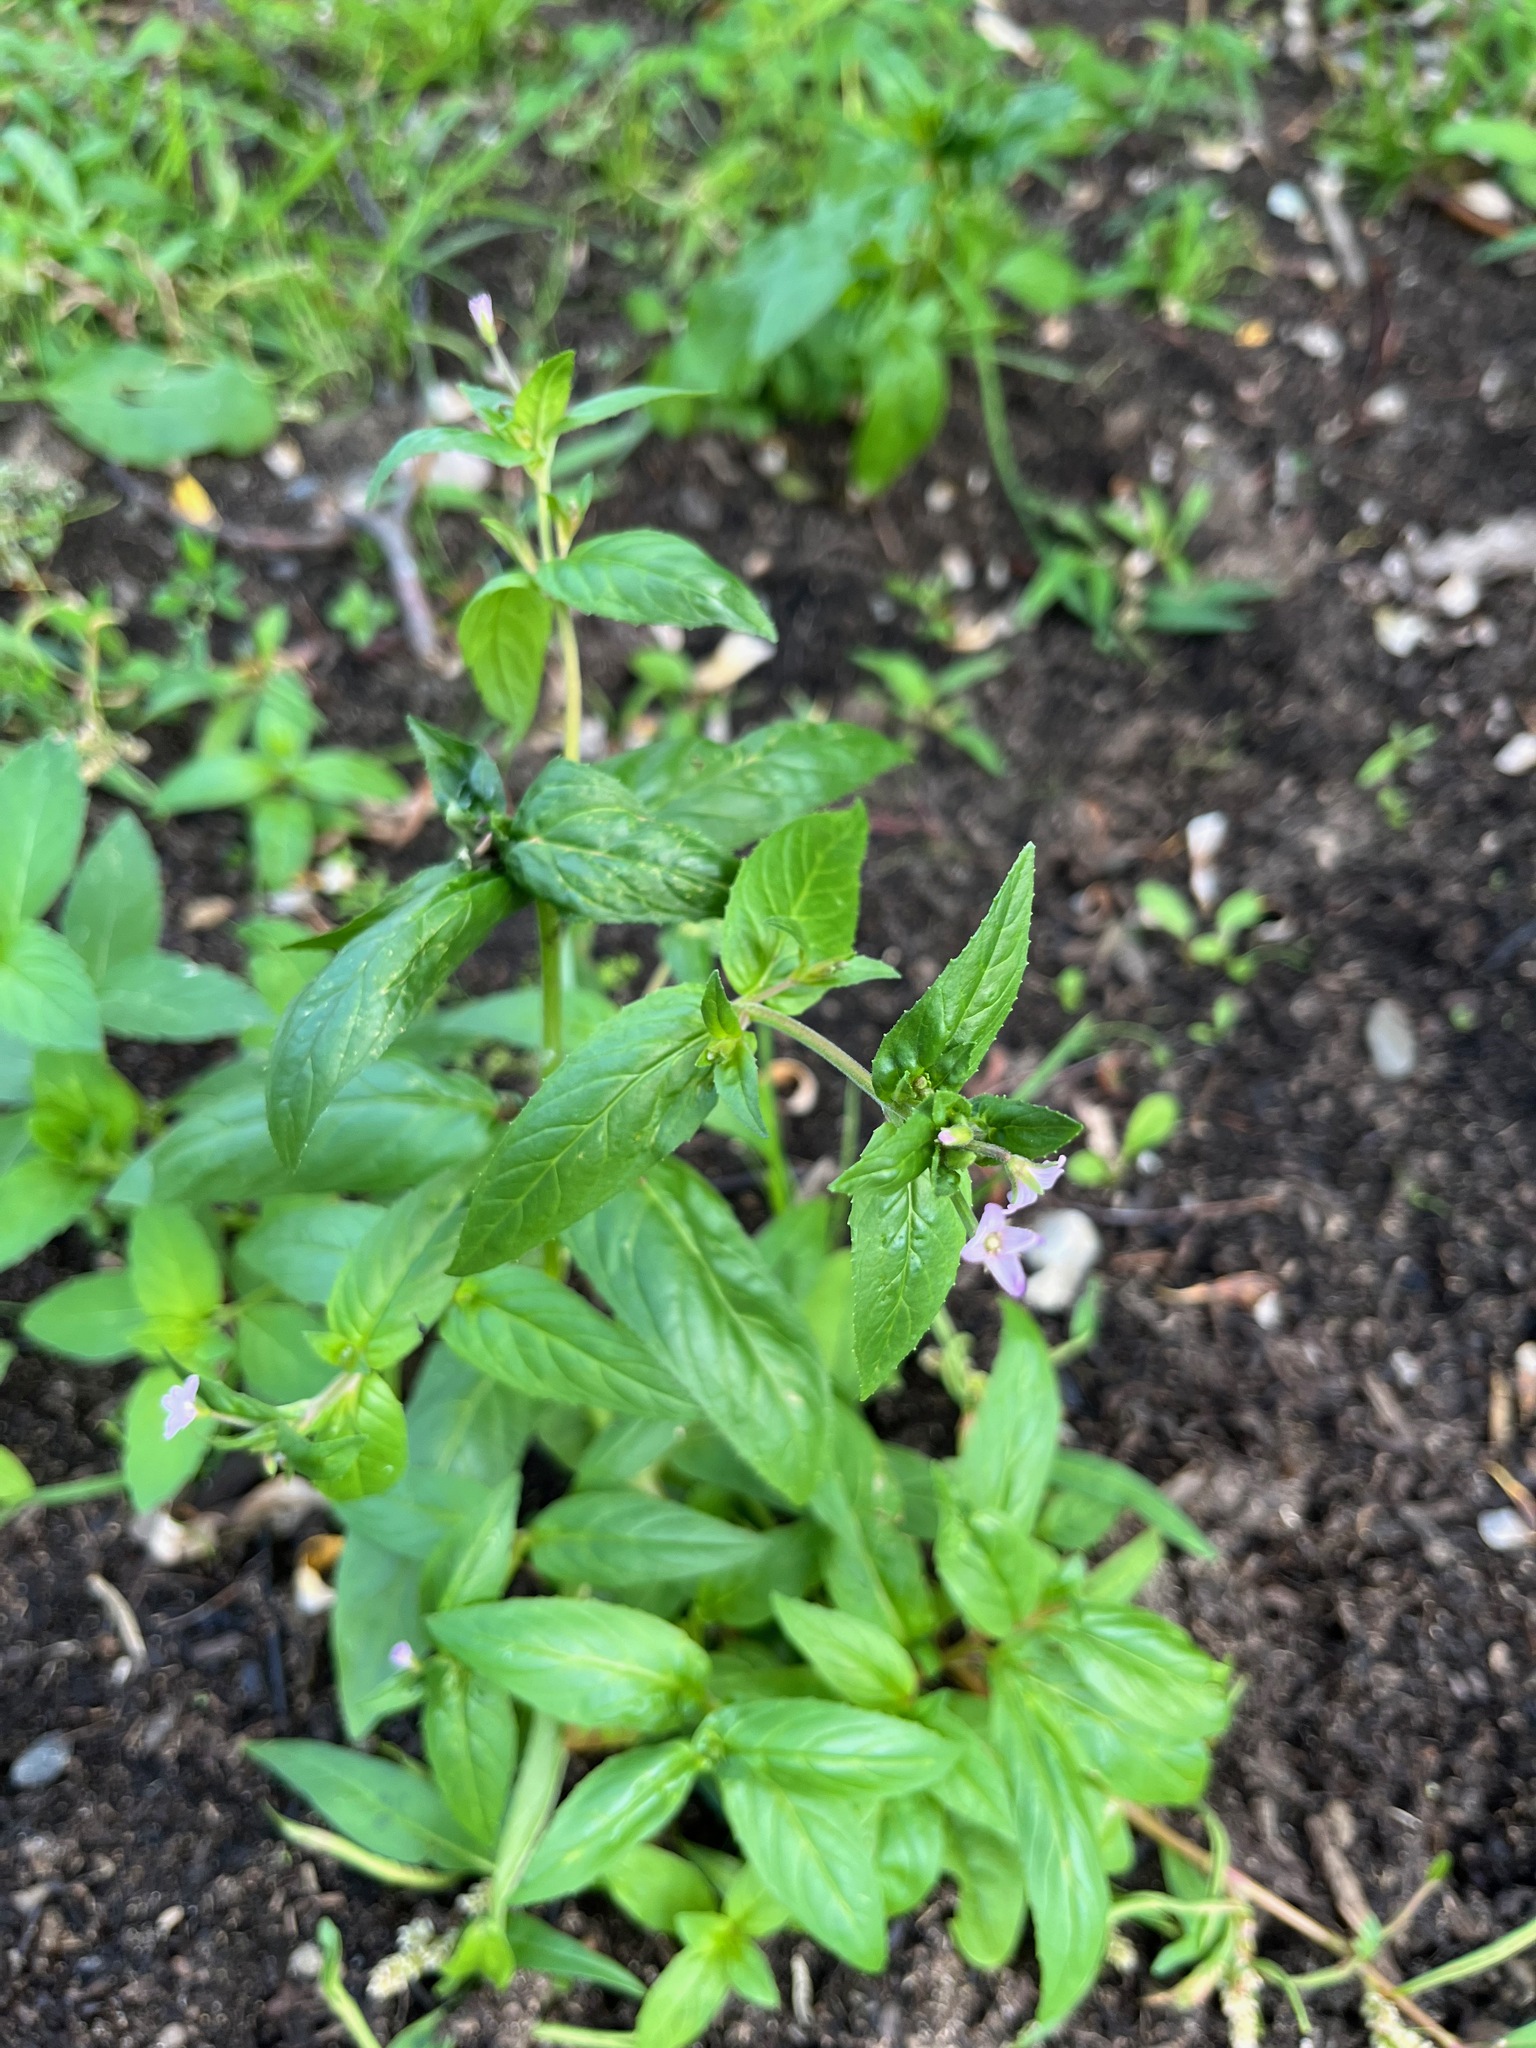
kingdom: Plantae
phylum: Tracheophyta
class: Magnoliopsida
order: Myrtales
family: Onagraceae
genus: Epilobium
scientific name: Epilobium ciliatum
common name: American willowherb
